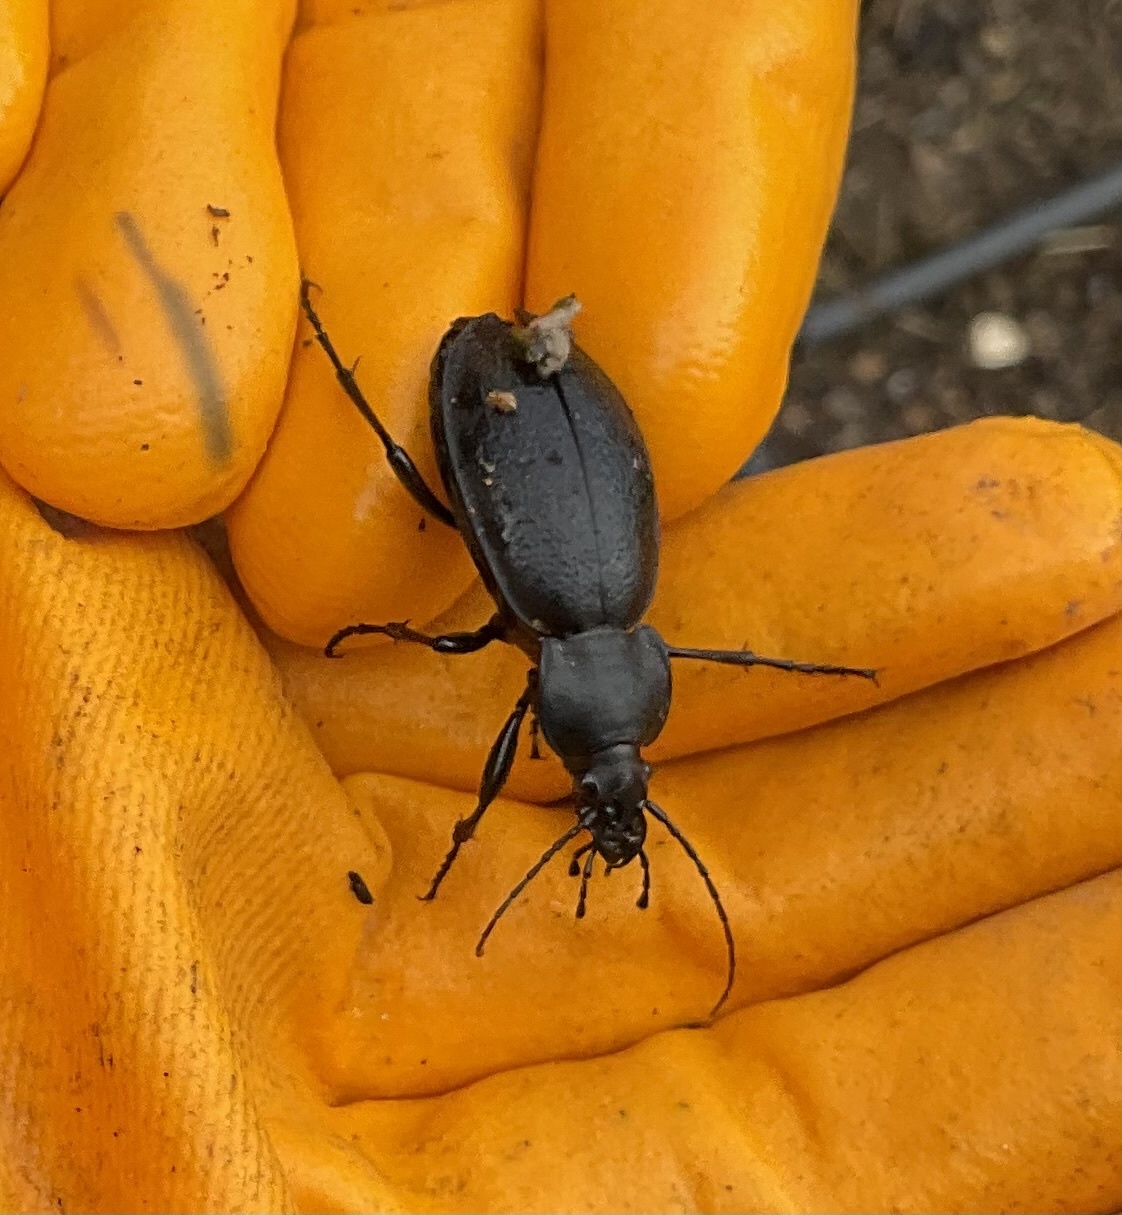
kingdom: Animalia
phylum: Arthropoda
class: Insecta
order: Coleoptera
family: Carabidae
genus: Carabus
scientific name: Carabus coriaceus
